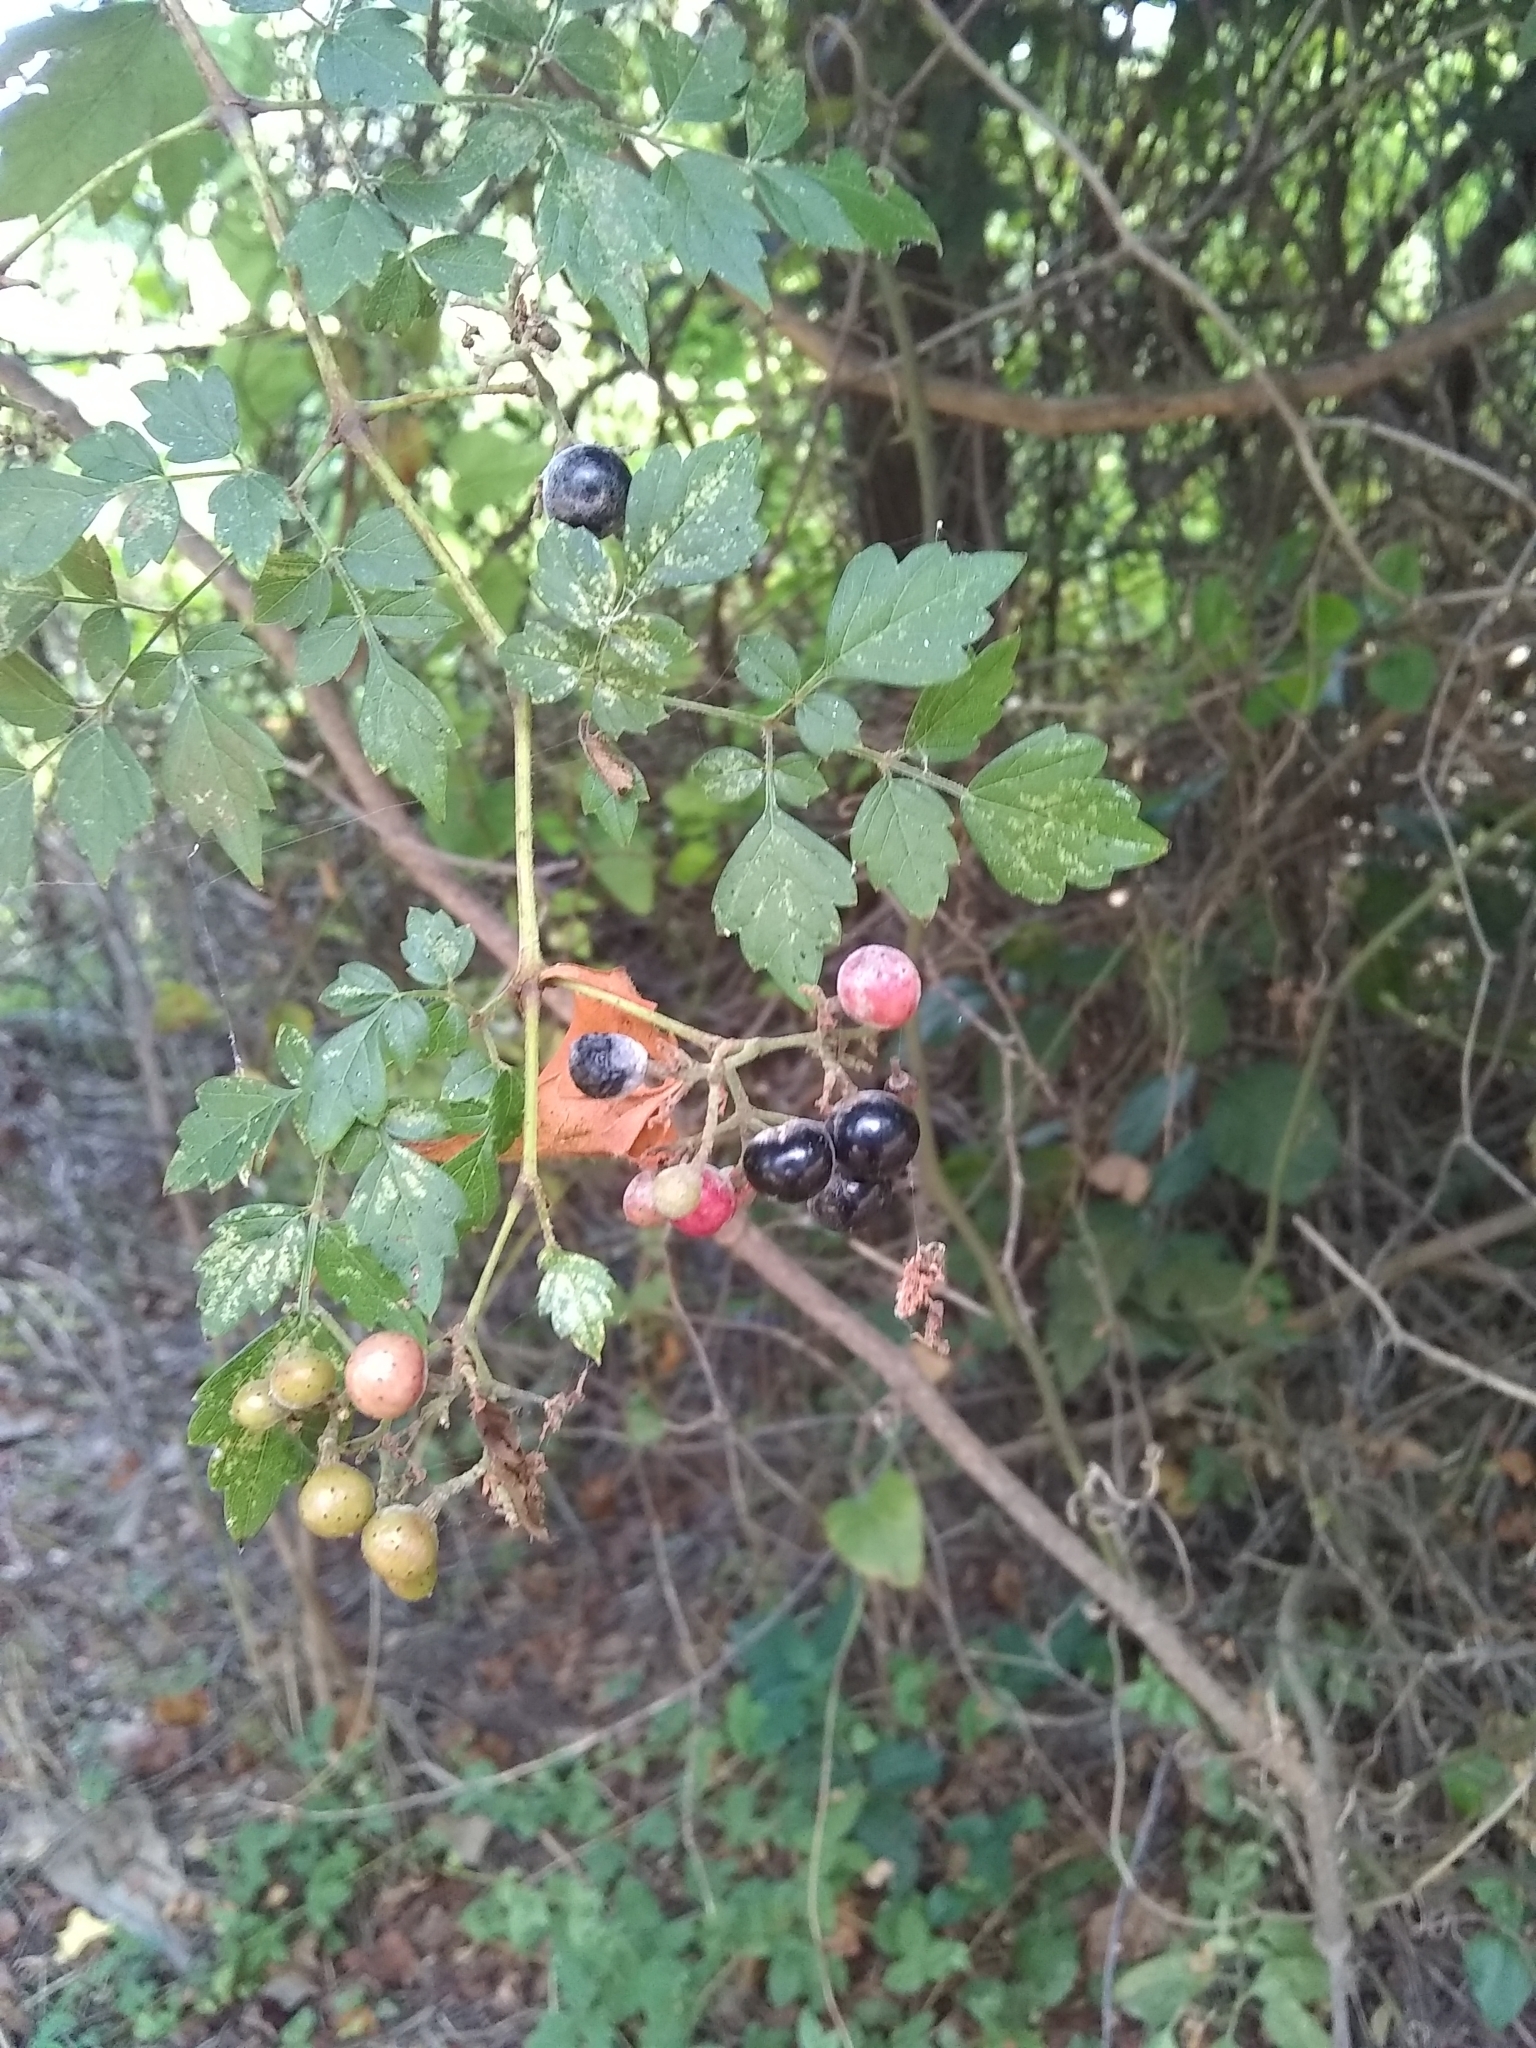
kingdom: Plantae
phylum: Tracheophyta
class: Magnoliopsida
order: Vitales
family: Vitaceae
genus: Nekemias
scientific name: Nekemias arborea
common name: Peppervine
